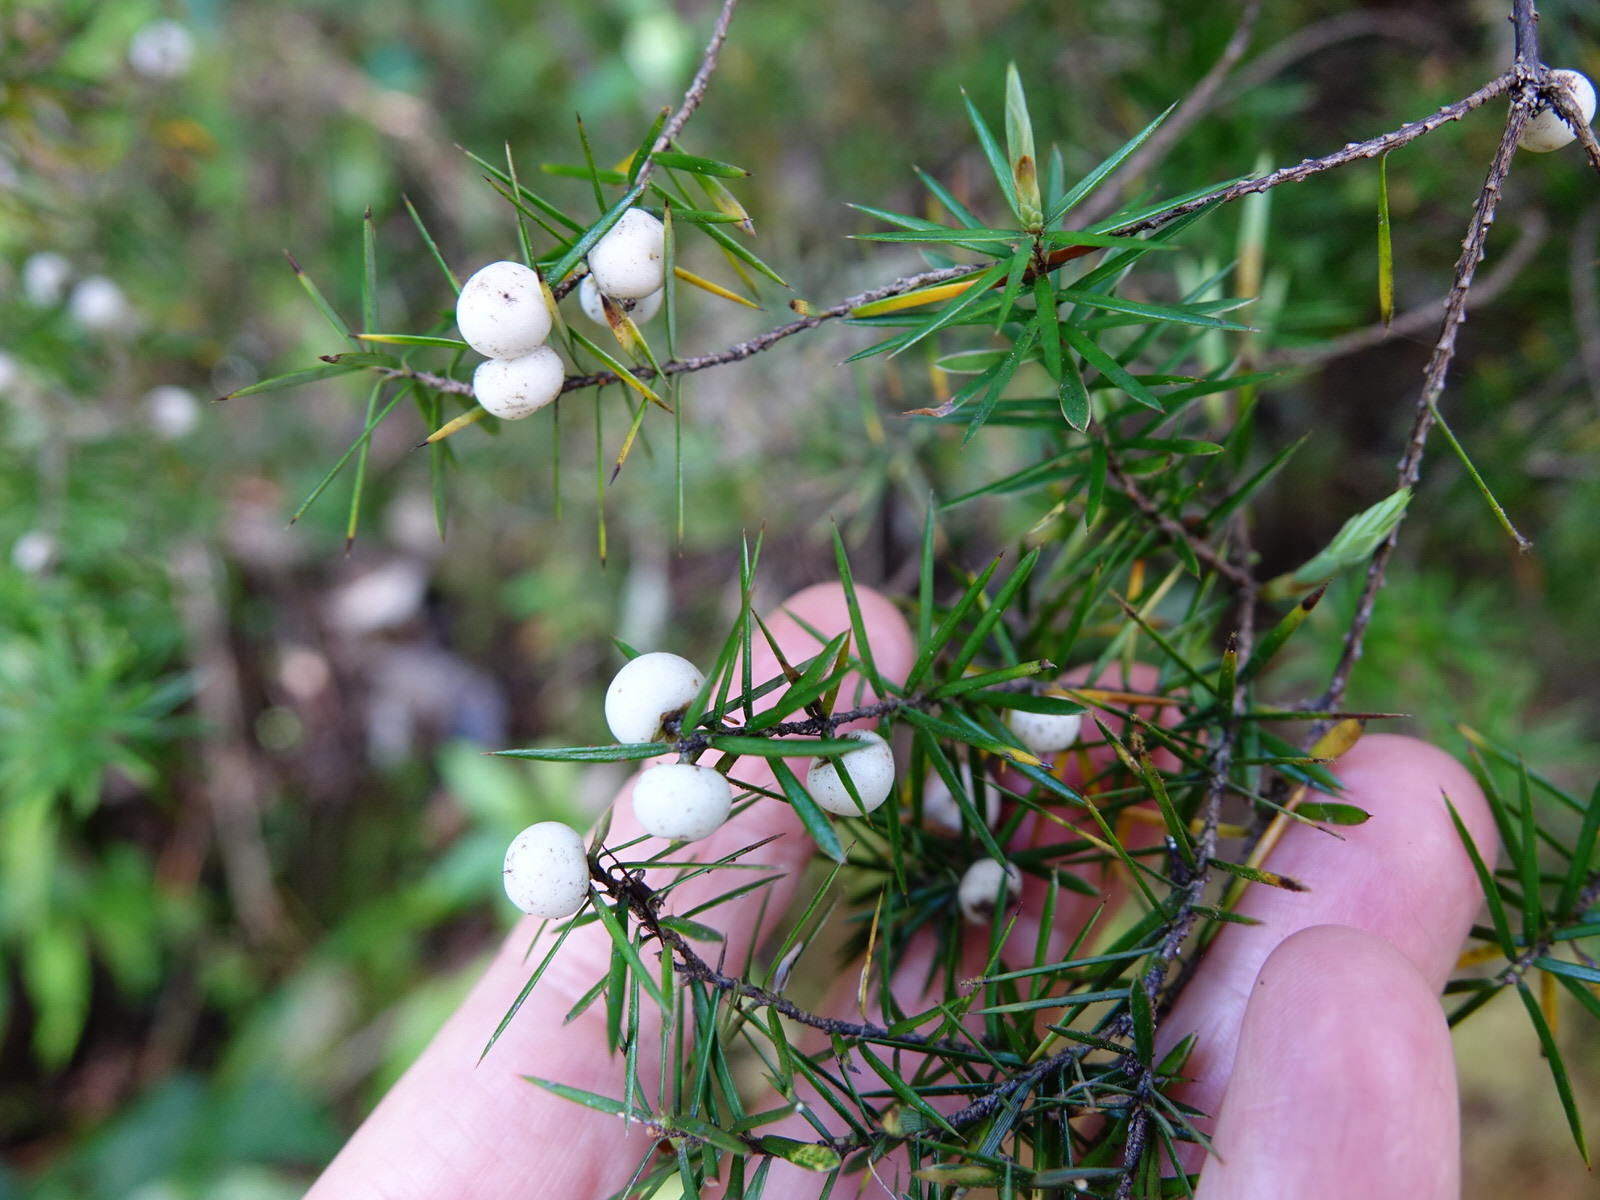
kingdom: Plantae
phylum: Tracheophyta
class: Magnoliopsida
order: Ericales
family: Ericaceae
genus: Leptecophylla
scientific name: Leptecophylla juniperina
